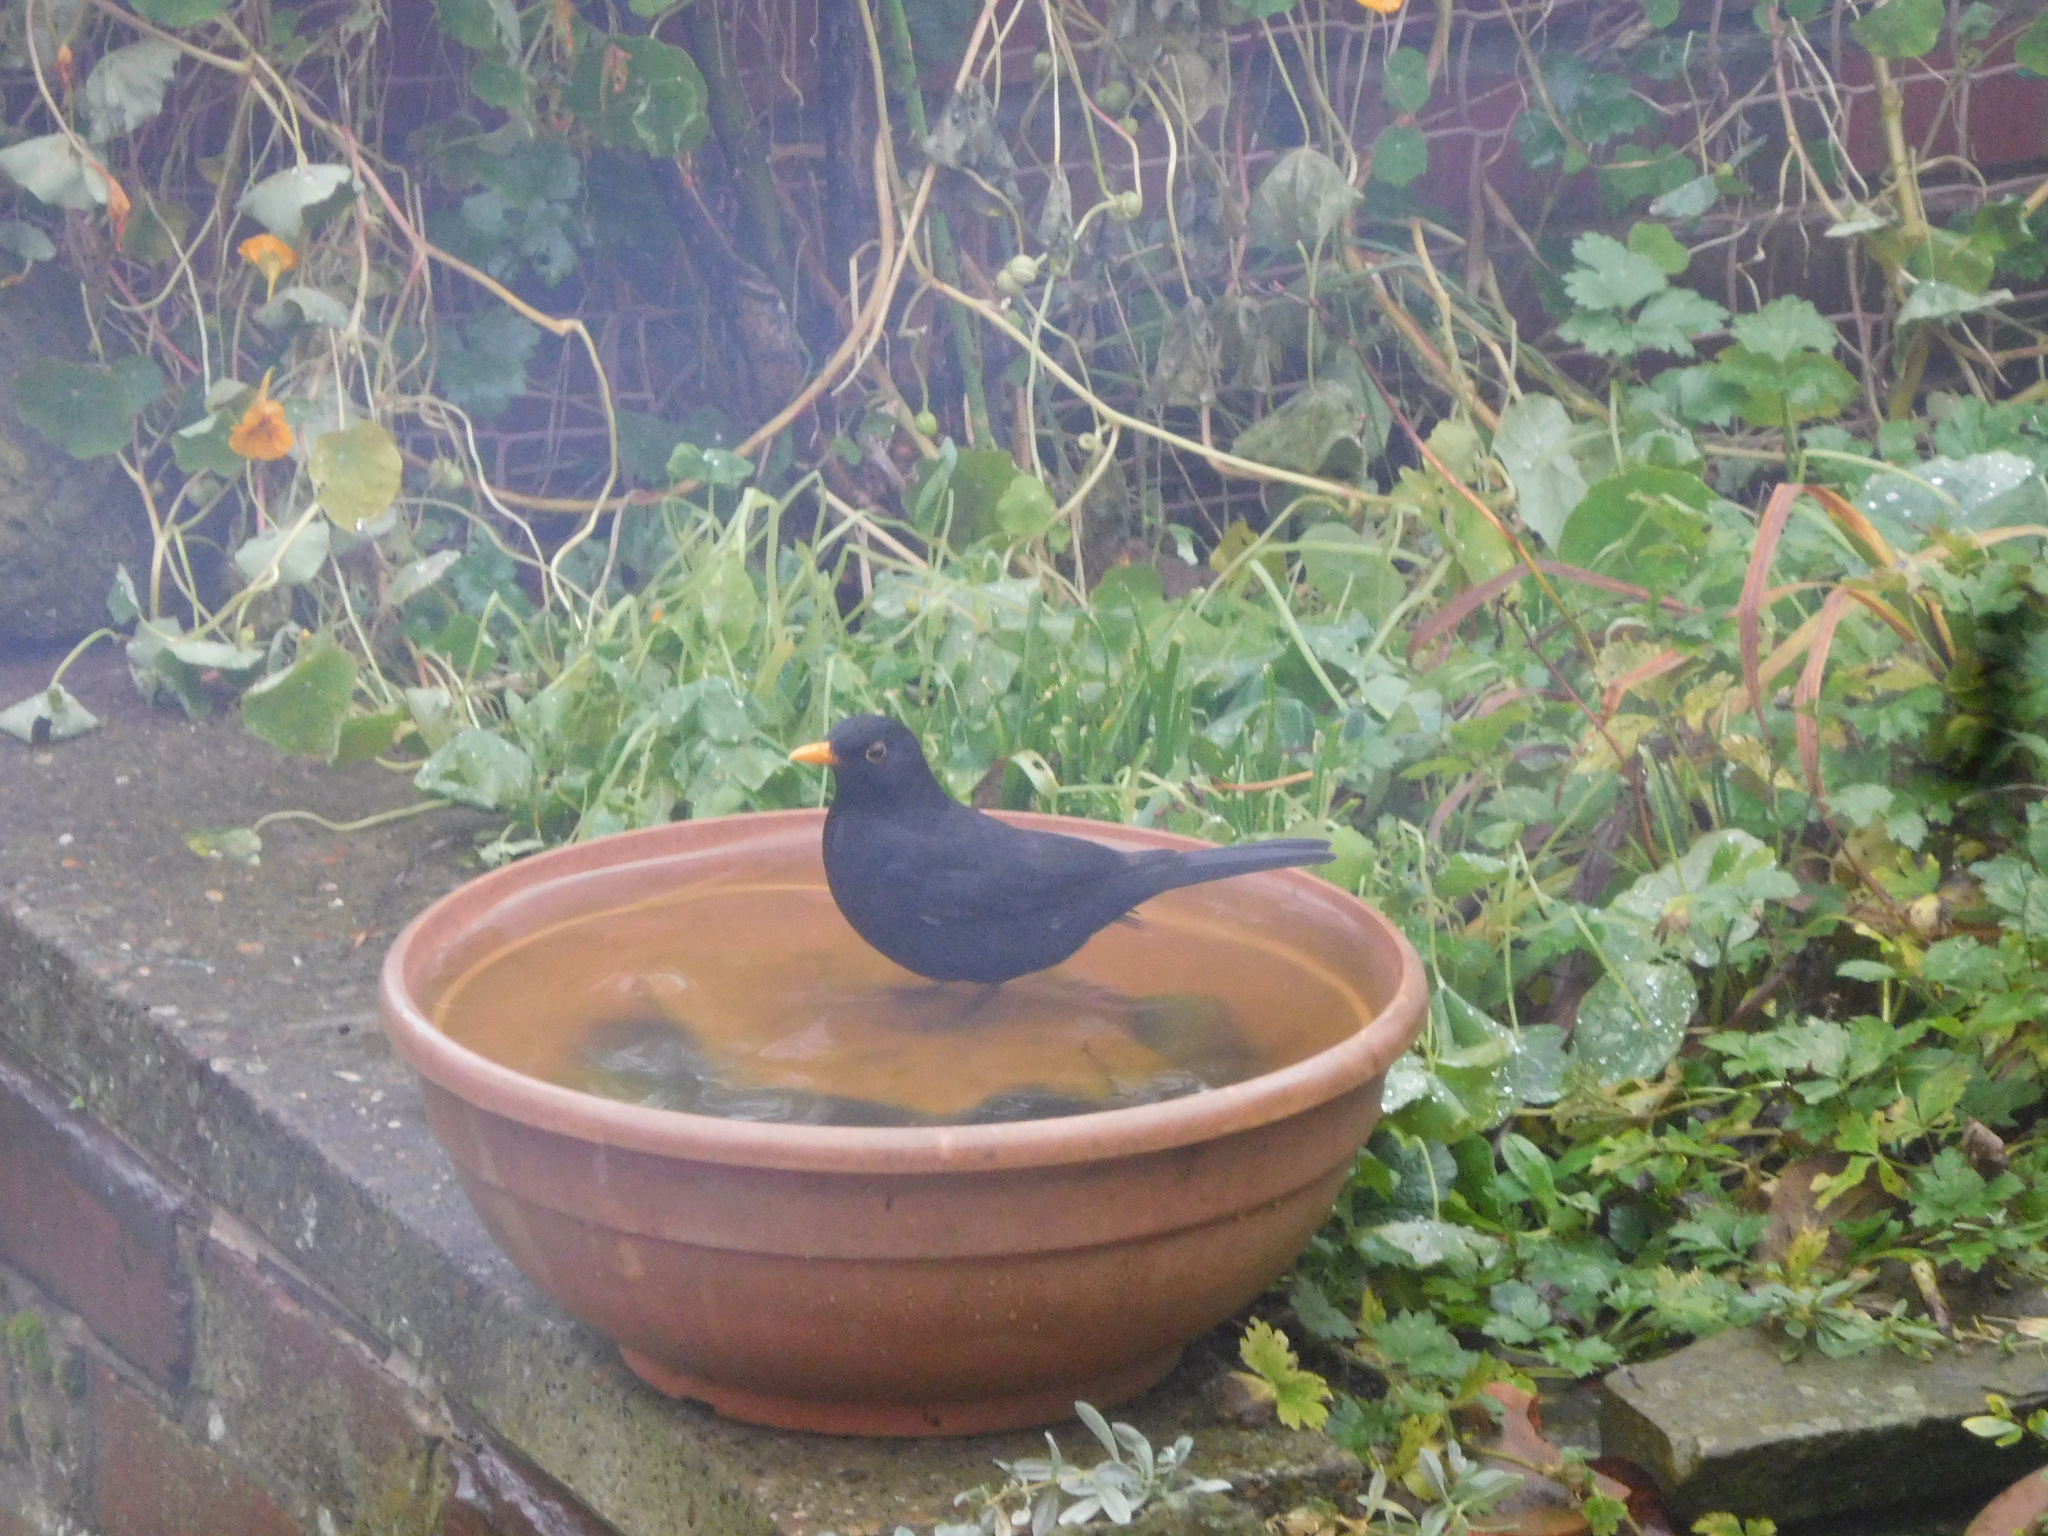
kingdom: Animalia
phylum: Chordata
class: Aves
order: Passeriformes
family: Turdidae
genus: Turdus
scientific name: Turdus merula
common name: Common blackbird
